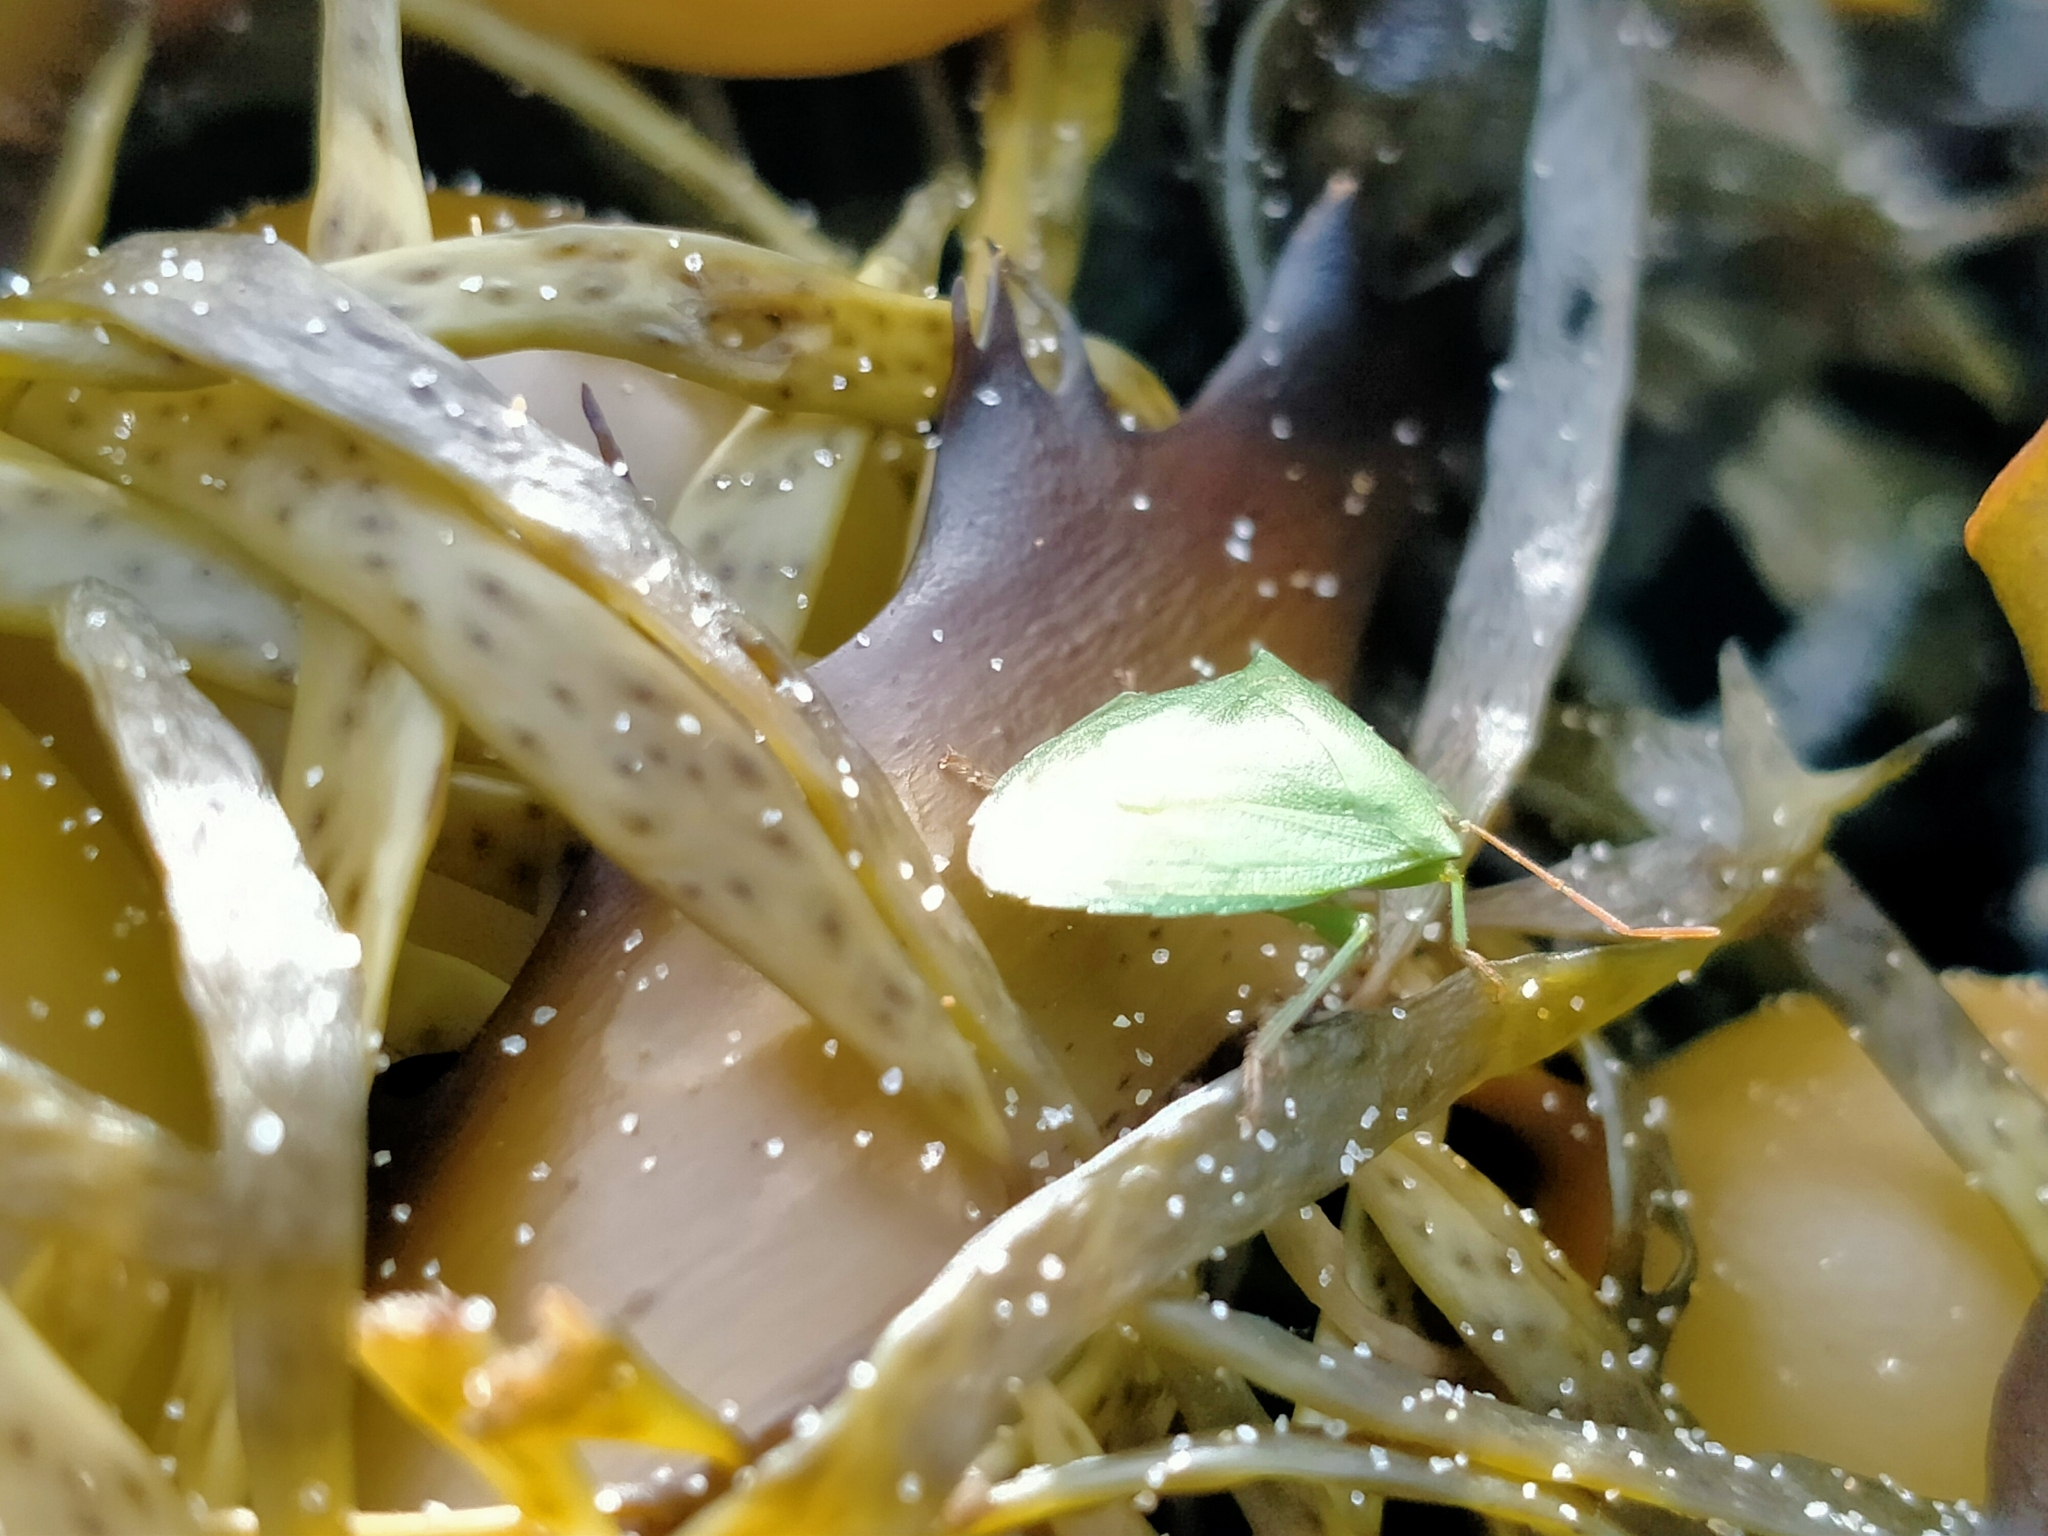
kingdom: Animalia
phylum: Arthropoda
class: Insecta
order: Hemiptera
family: Pentatomidae
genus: Cuspicona
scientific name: Cuspicona simplex
